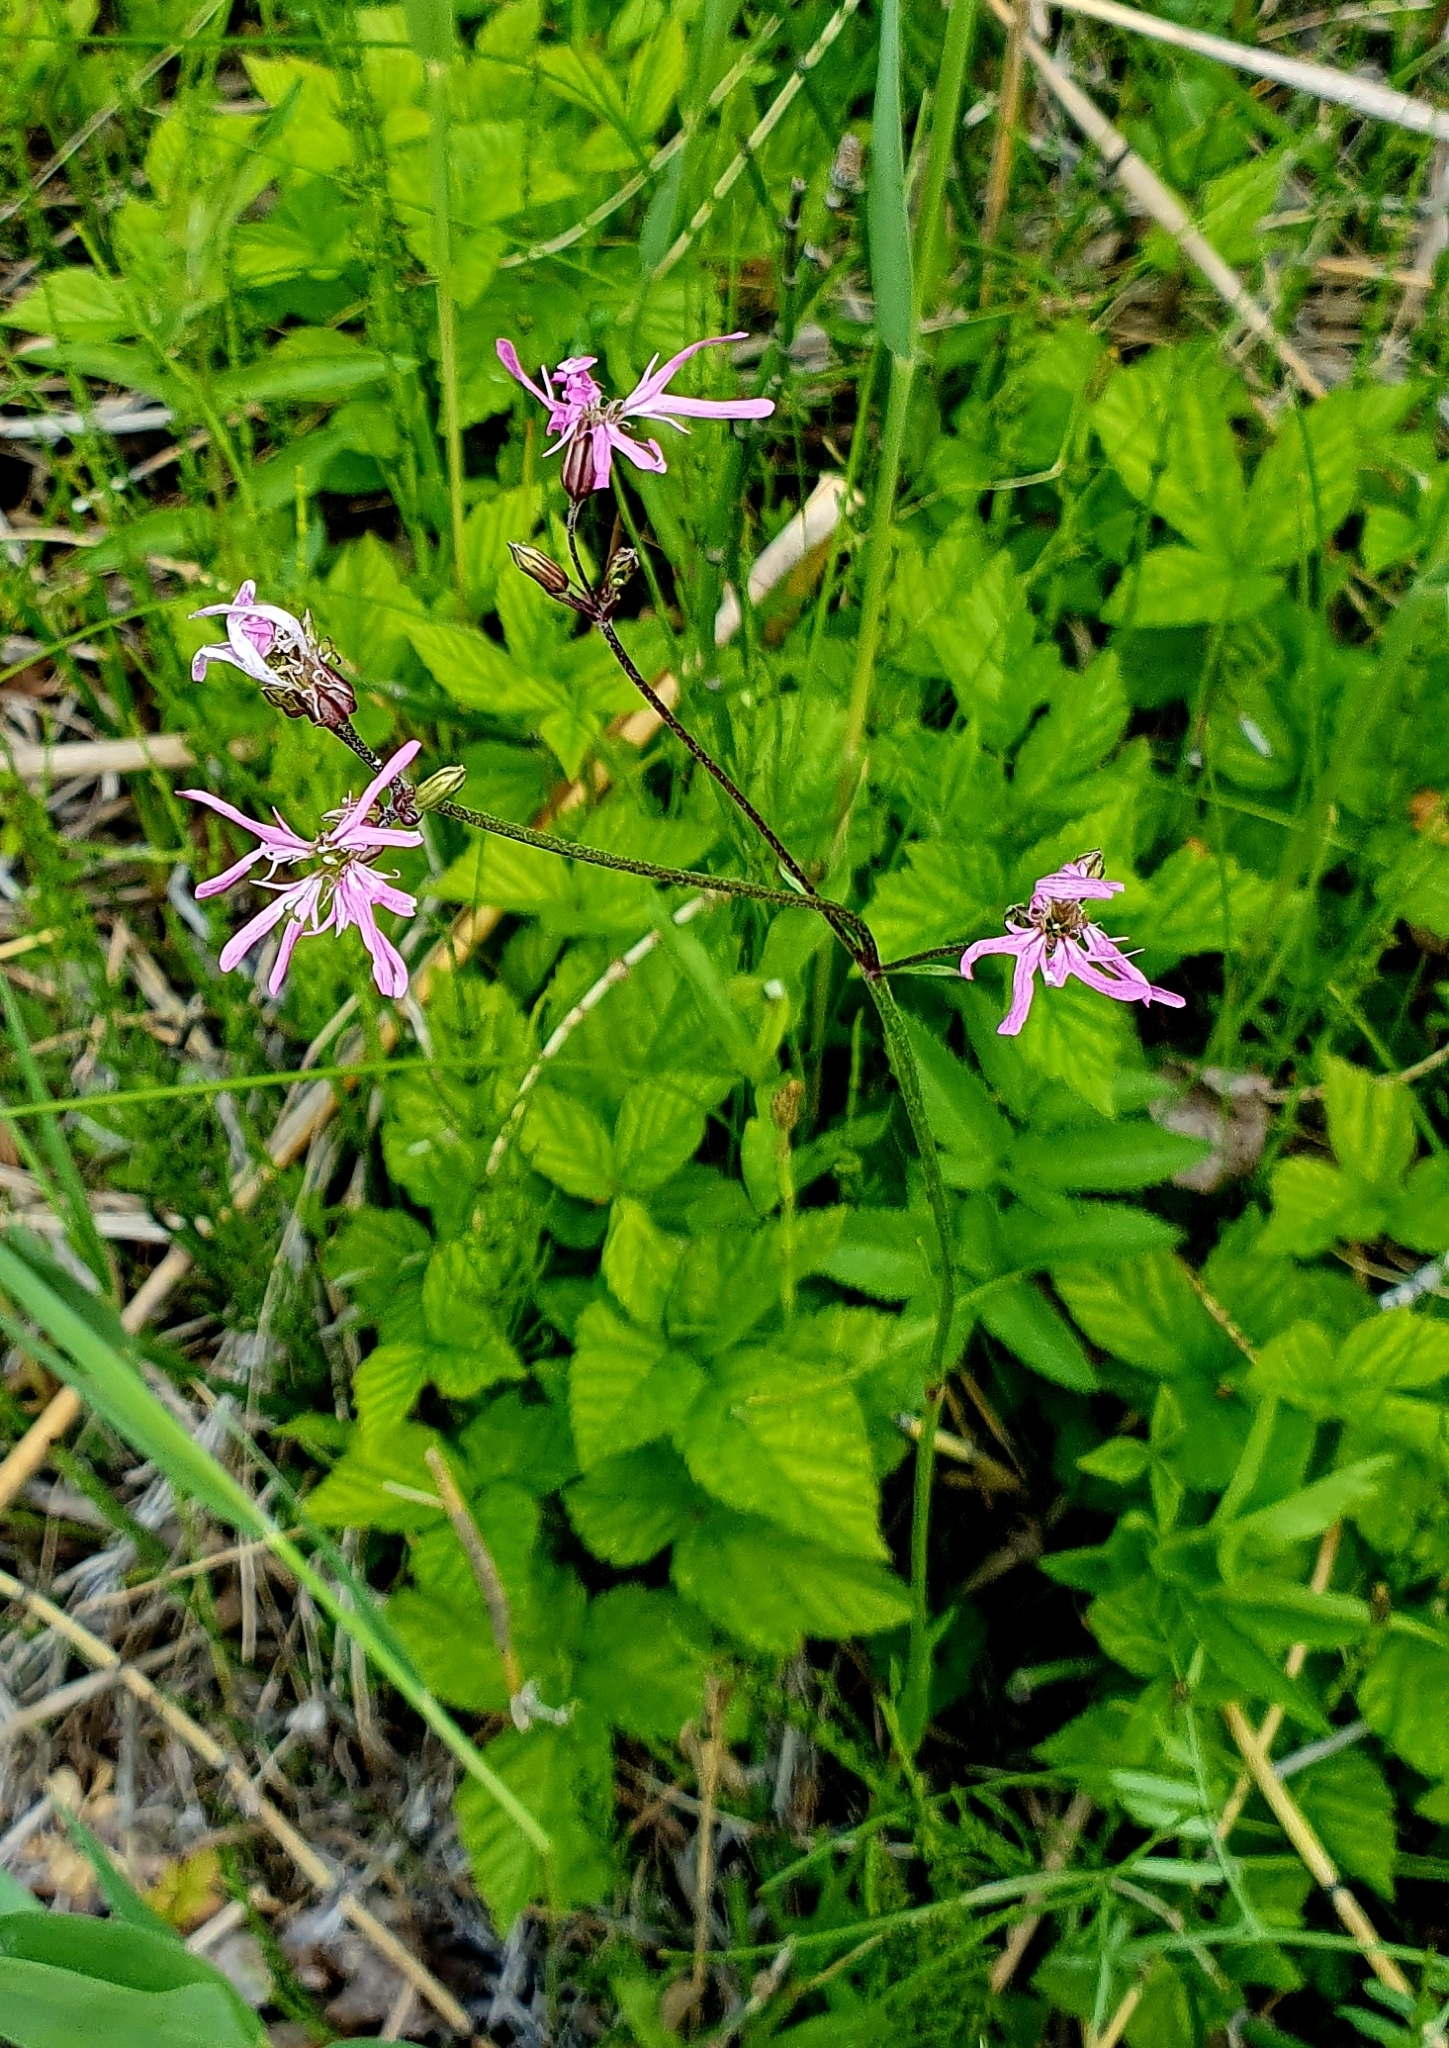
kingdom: Plantae
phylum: Tracheophyta
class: Magnoliopsida
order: Caryophyllales
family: Caryophyllaceae
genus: Silene
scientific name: Silene flos-cuculi
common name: Ragged-robin
